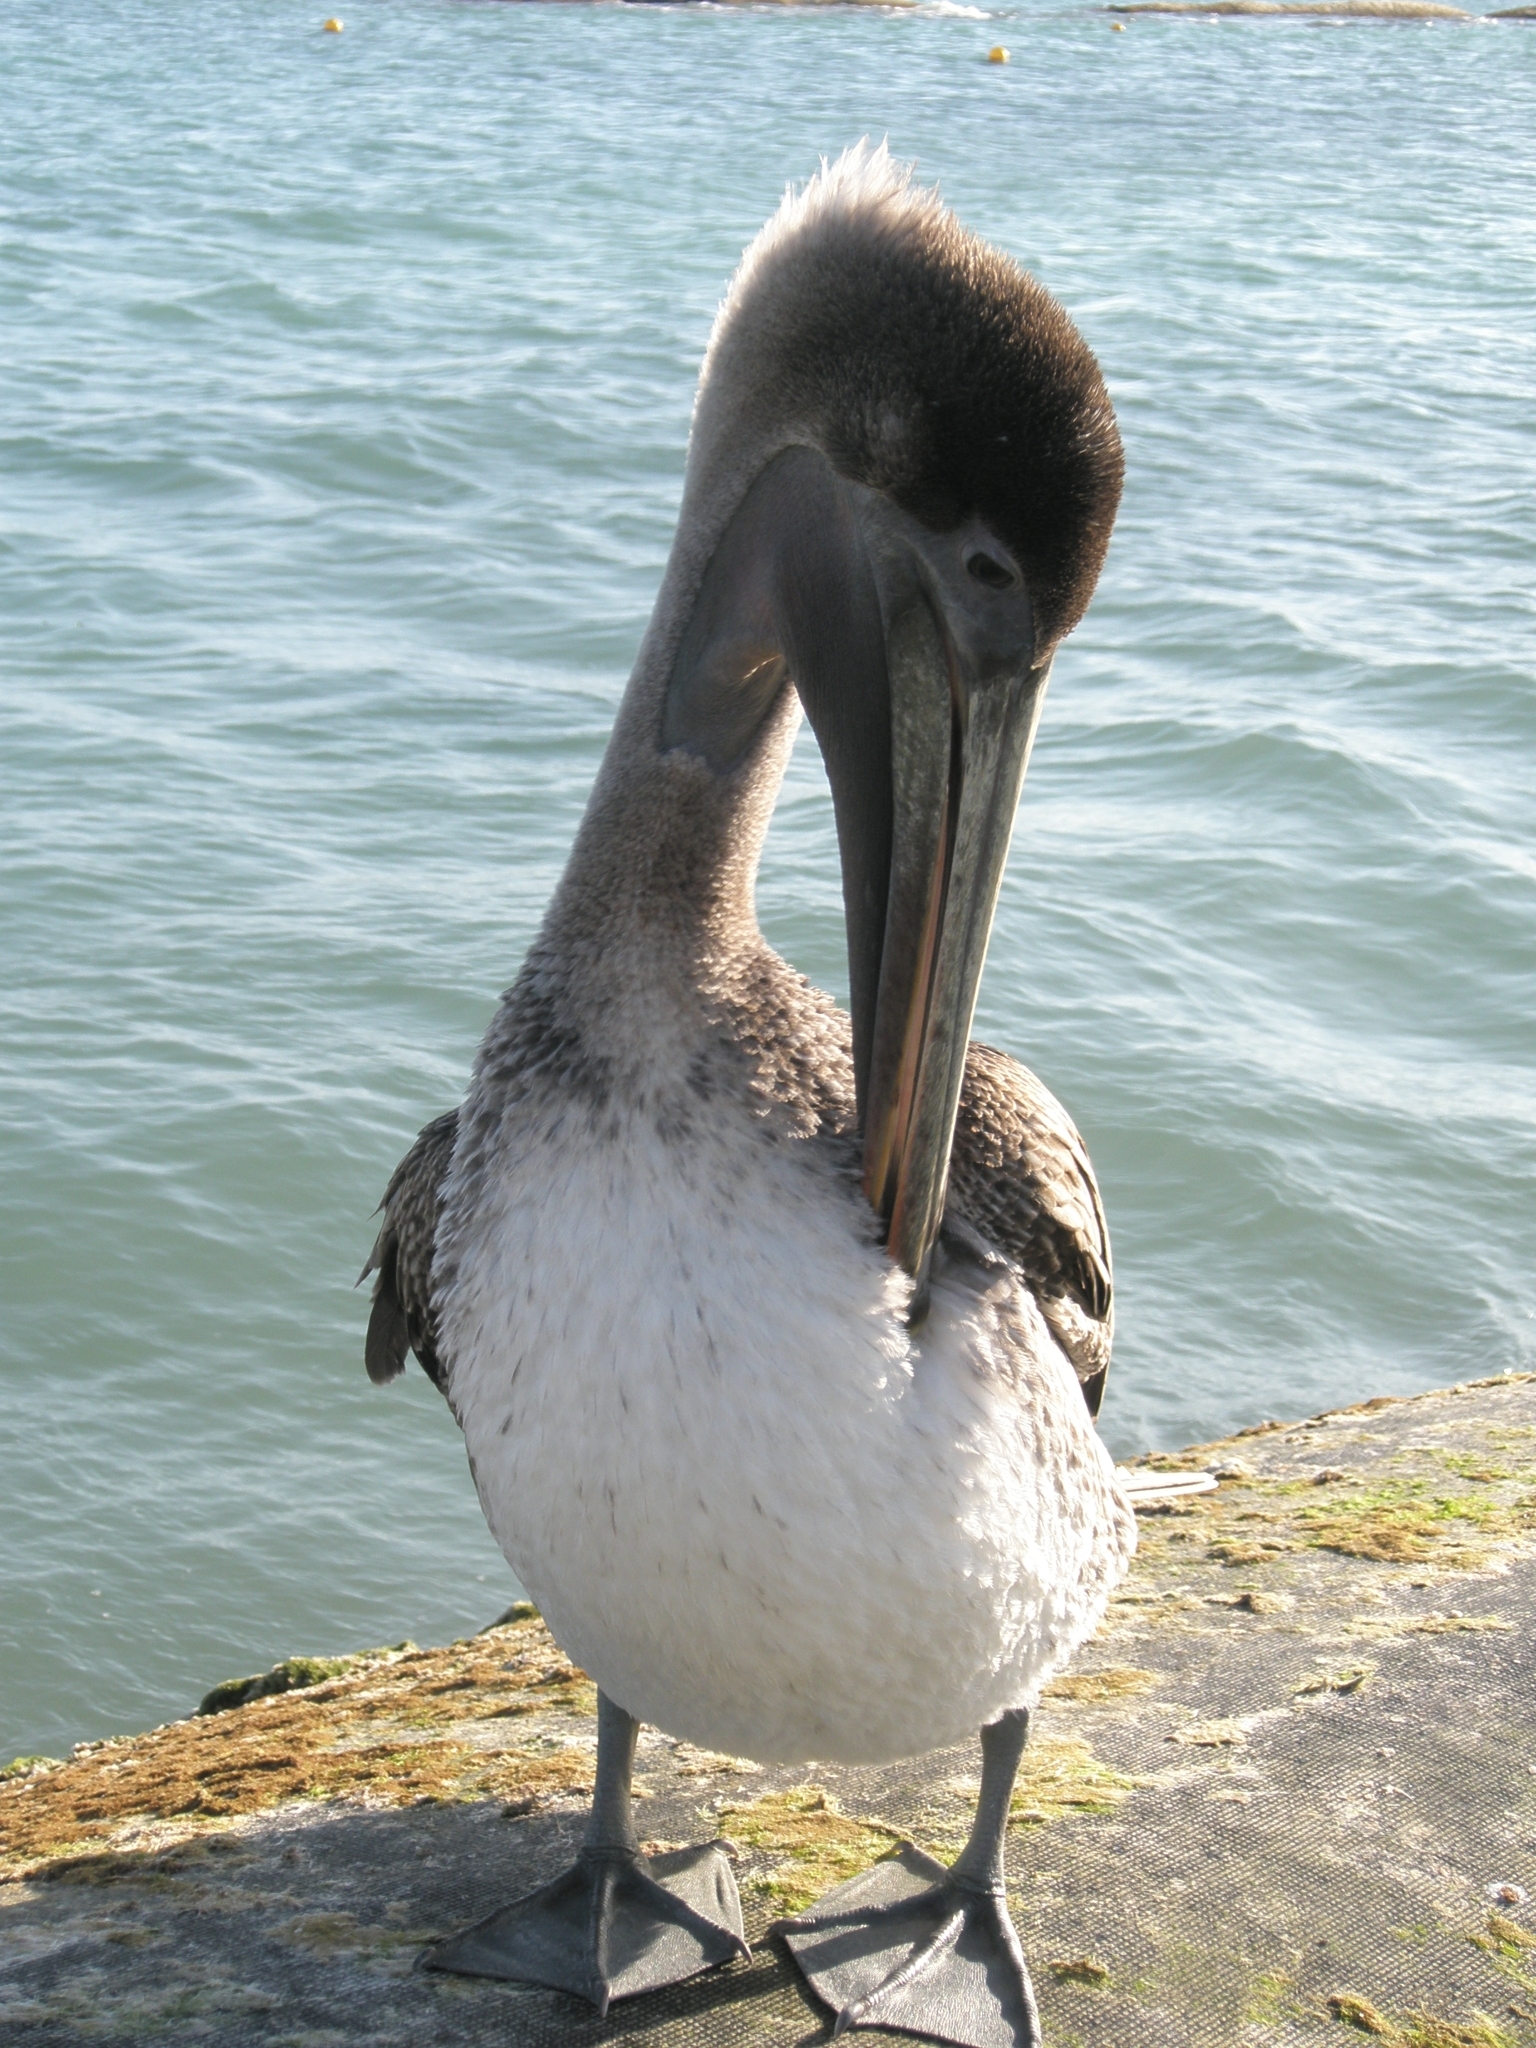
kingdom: Animalia
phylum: Chordata
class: Aves
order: Pelecaniformes
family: Pelecanidae
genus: Pelecanus
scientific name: Pelecanus occidentalis
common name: Brown pelican
